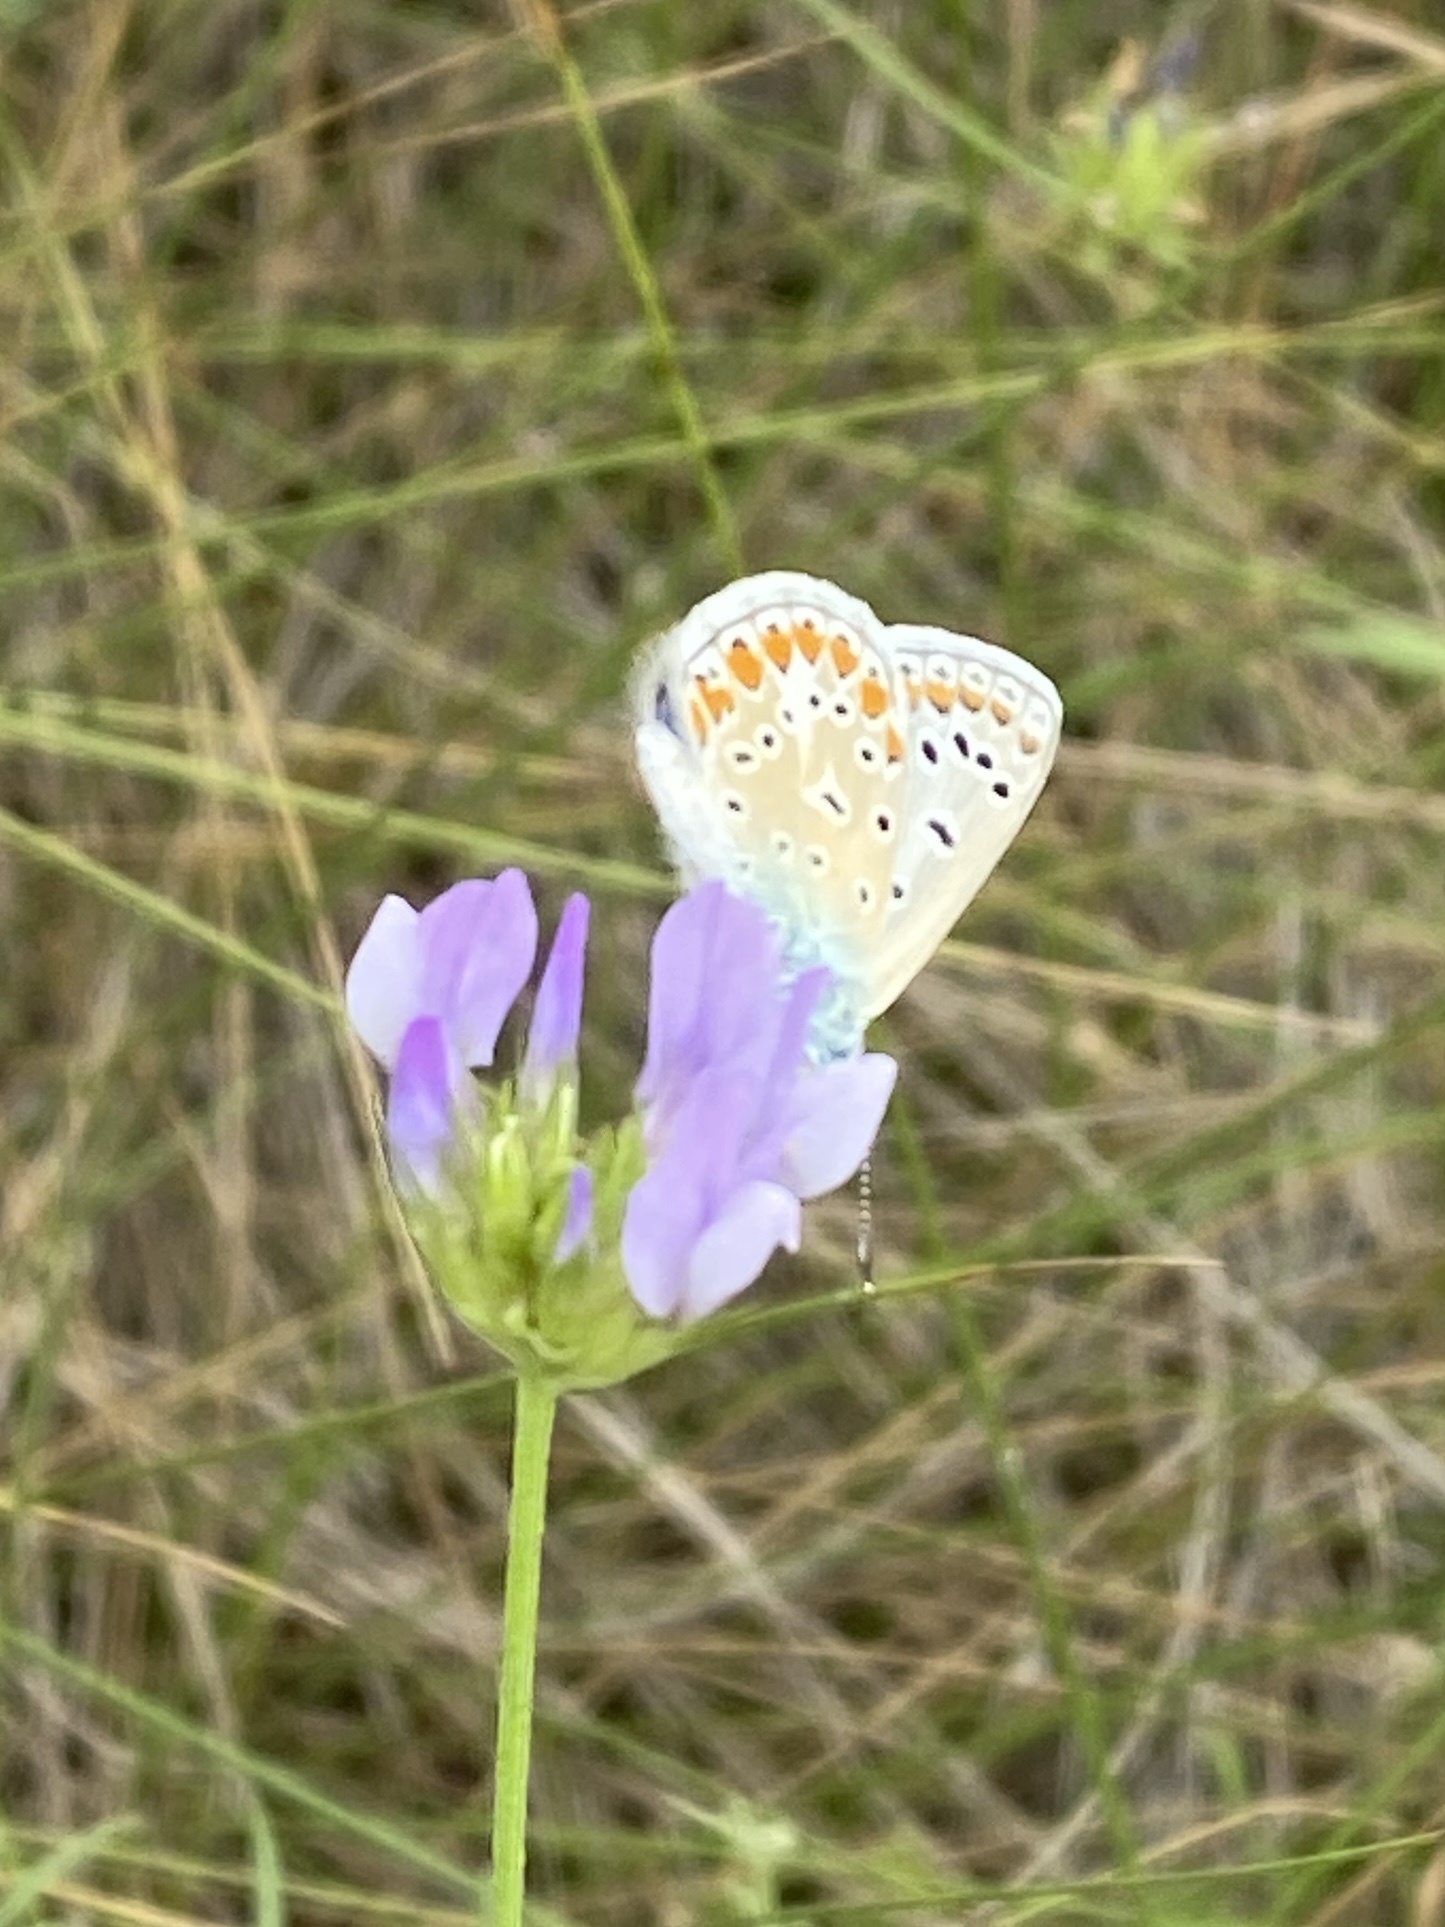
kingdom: Animalia
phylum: Arthropoda
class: Insecta
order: Lepidoptera
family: Lycaenidae
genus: Polyommatus
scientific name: Polyommatus icarus
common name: Common blue
